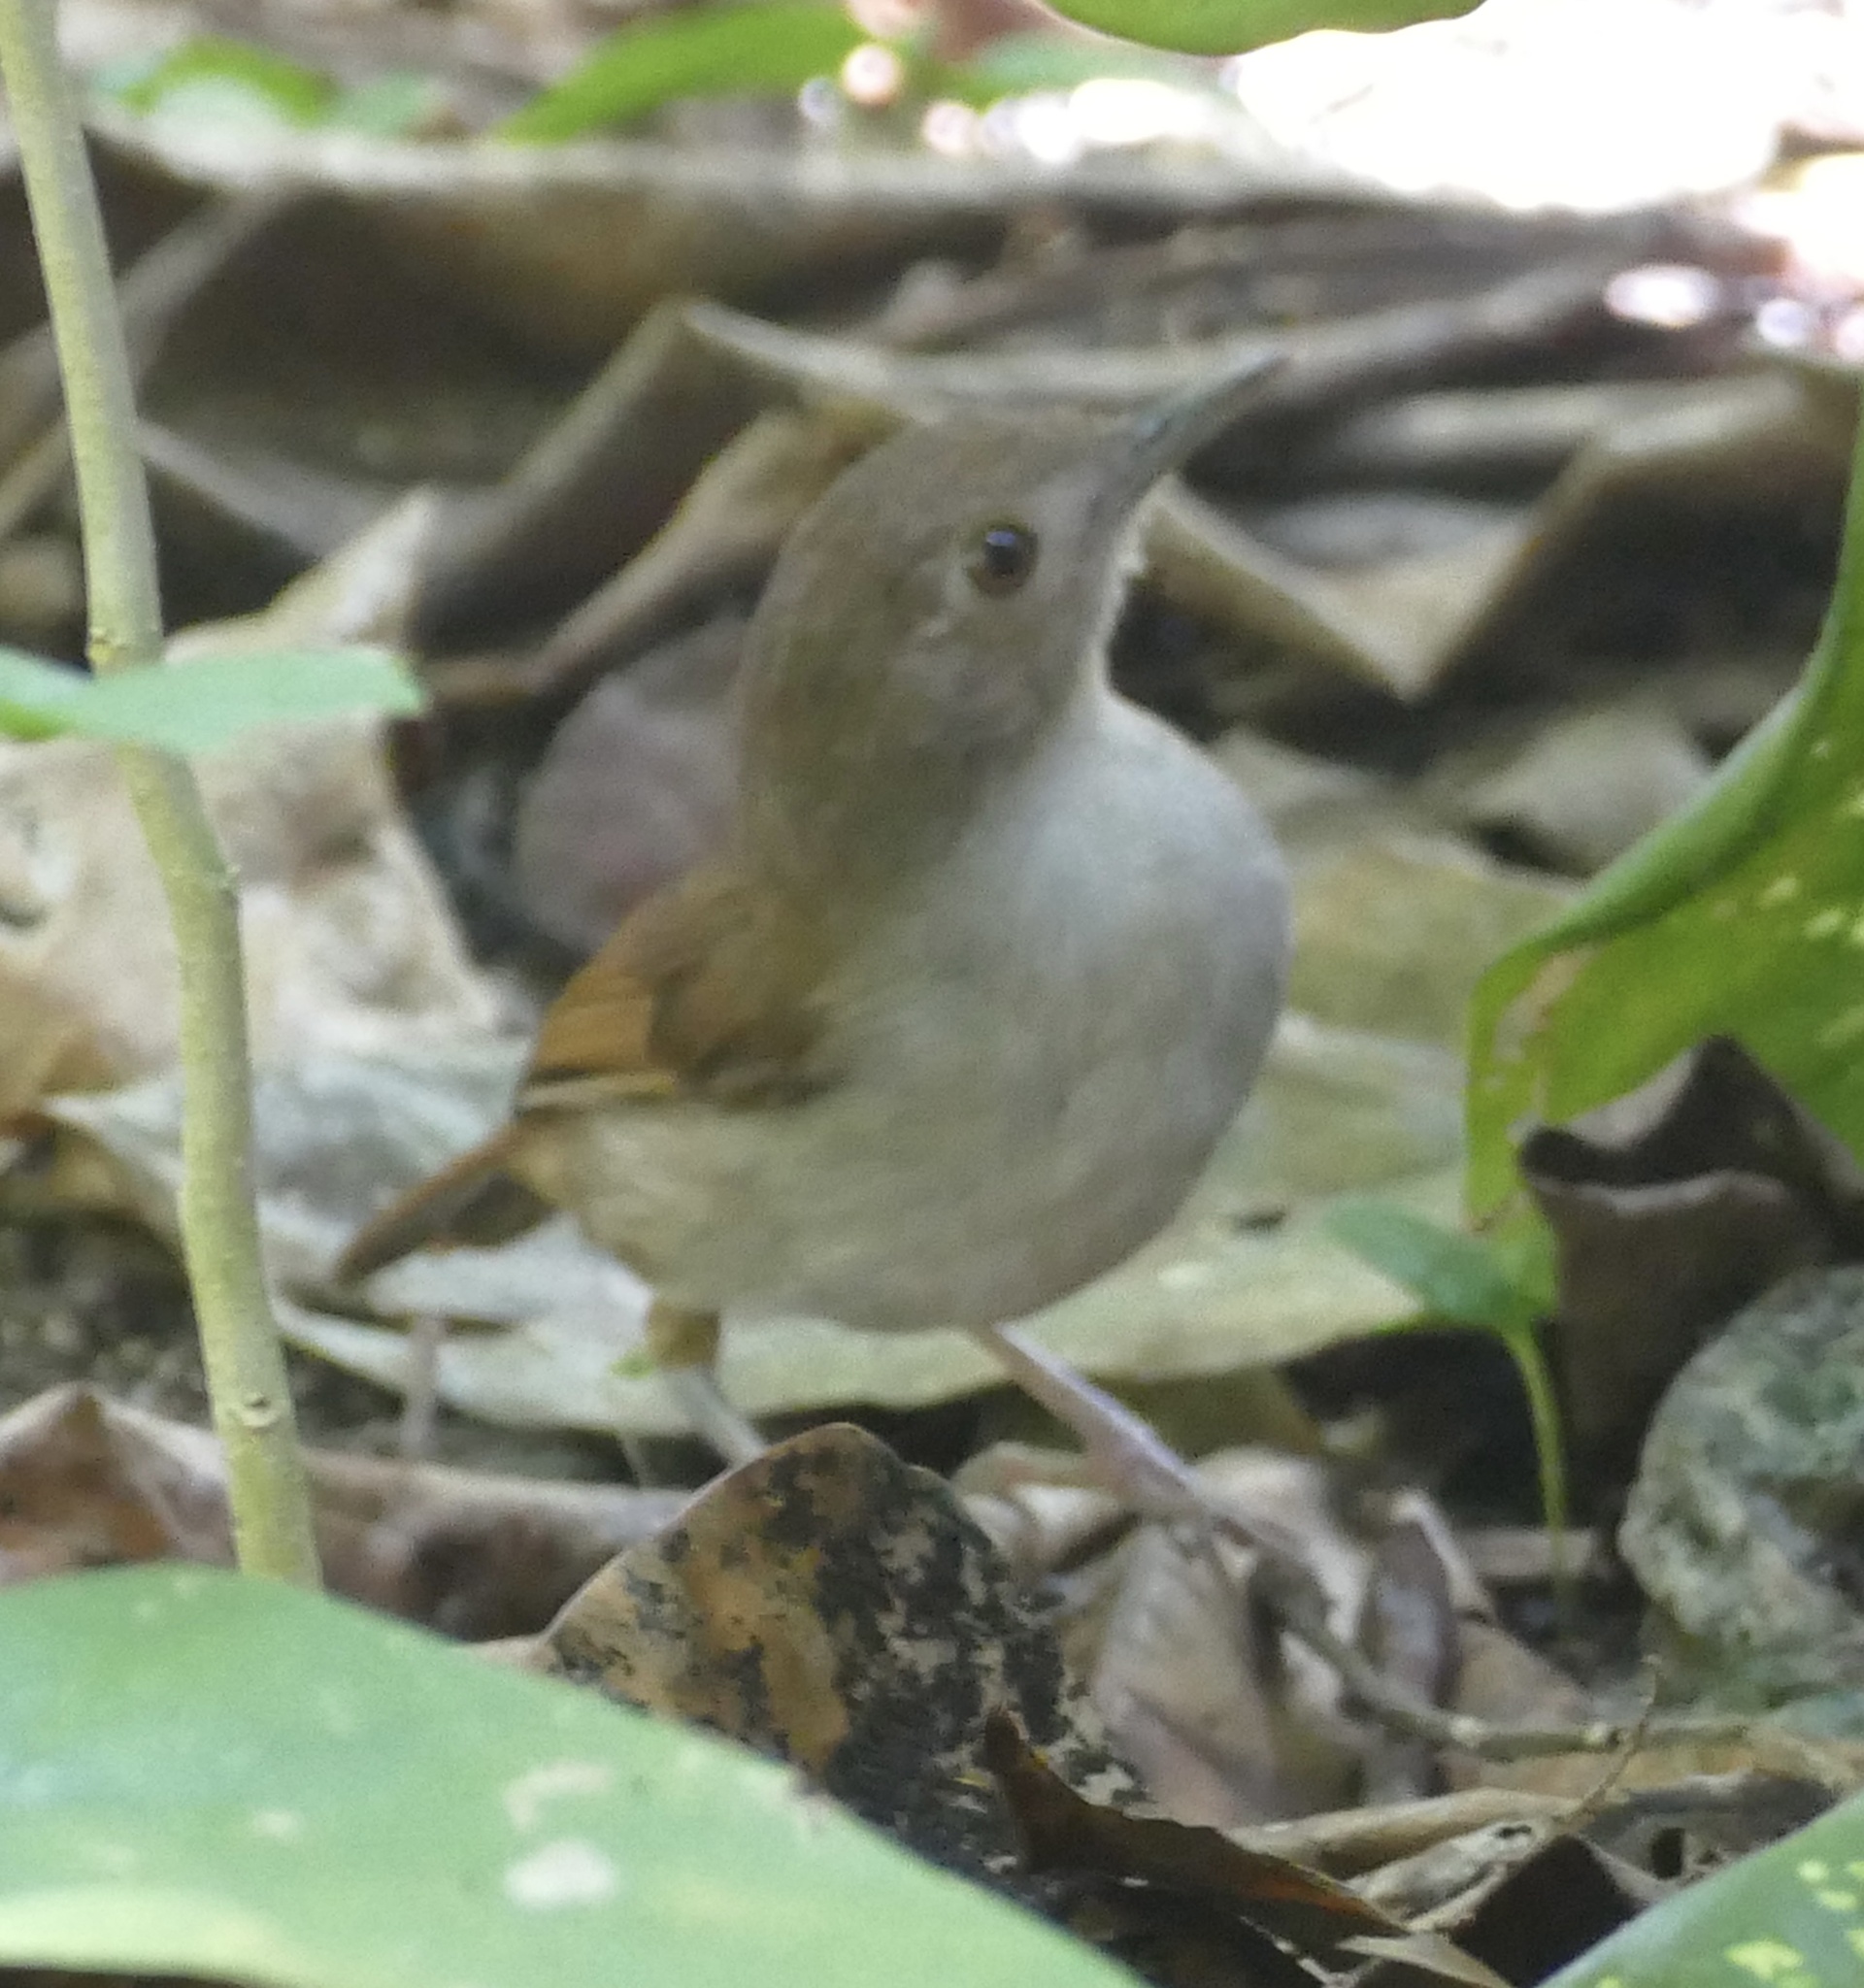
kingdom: Animalia
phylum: Chordata
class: Aves
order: Passeriformes
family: Pellorneidae
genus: Trichastoma
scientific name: Trichastoma celebense
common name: Sulawesi babbler
